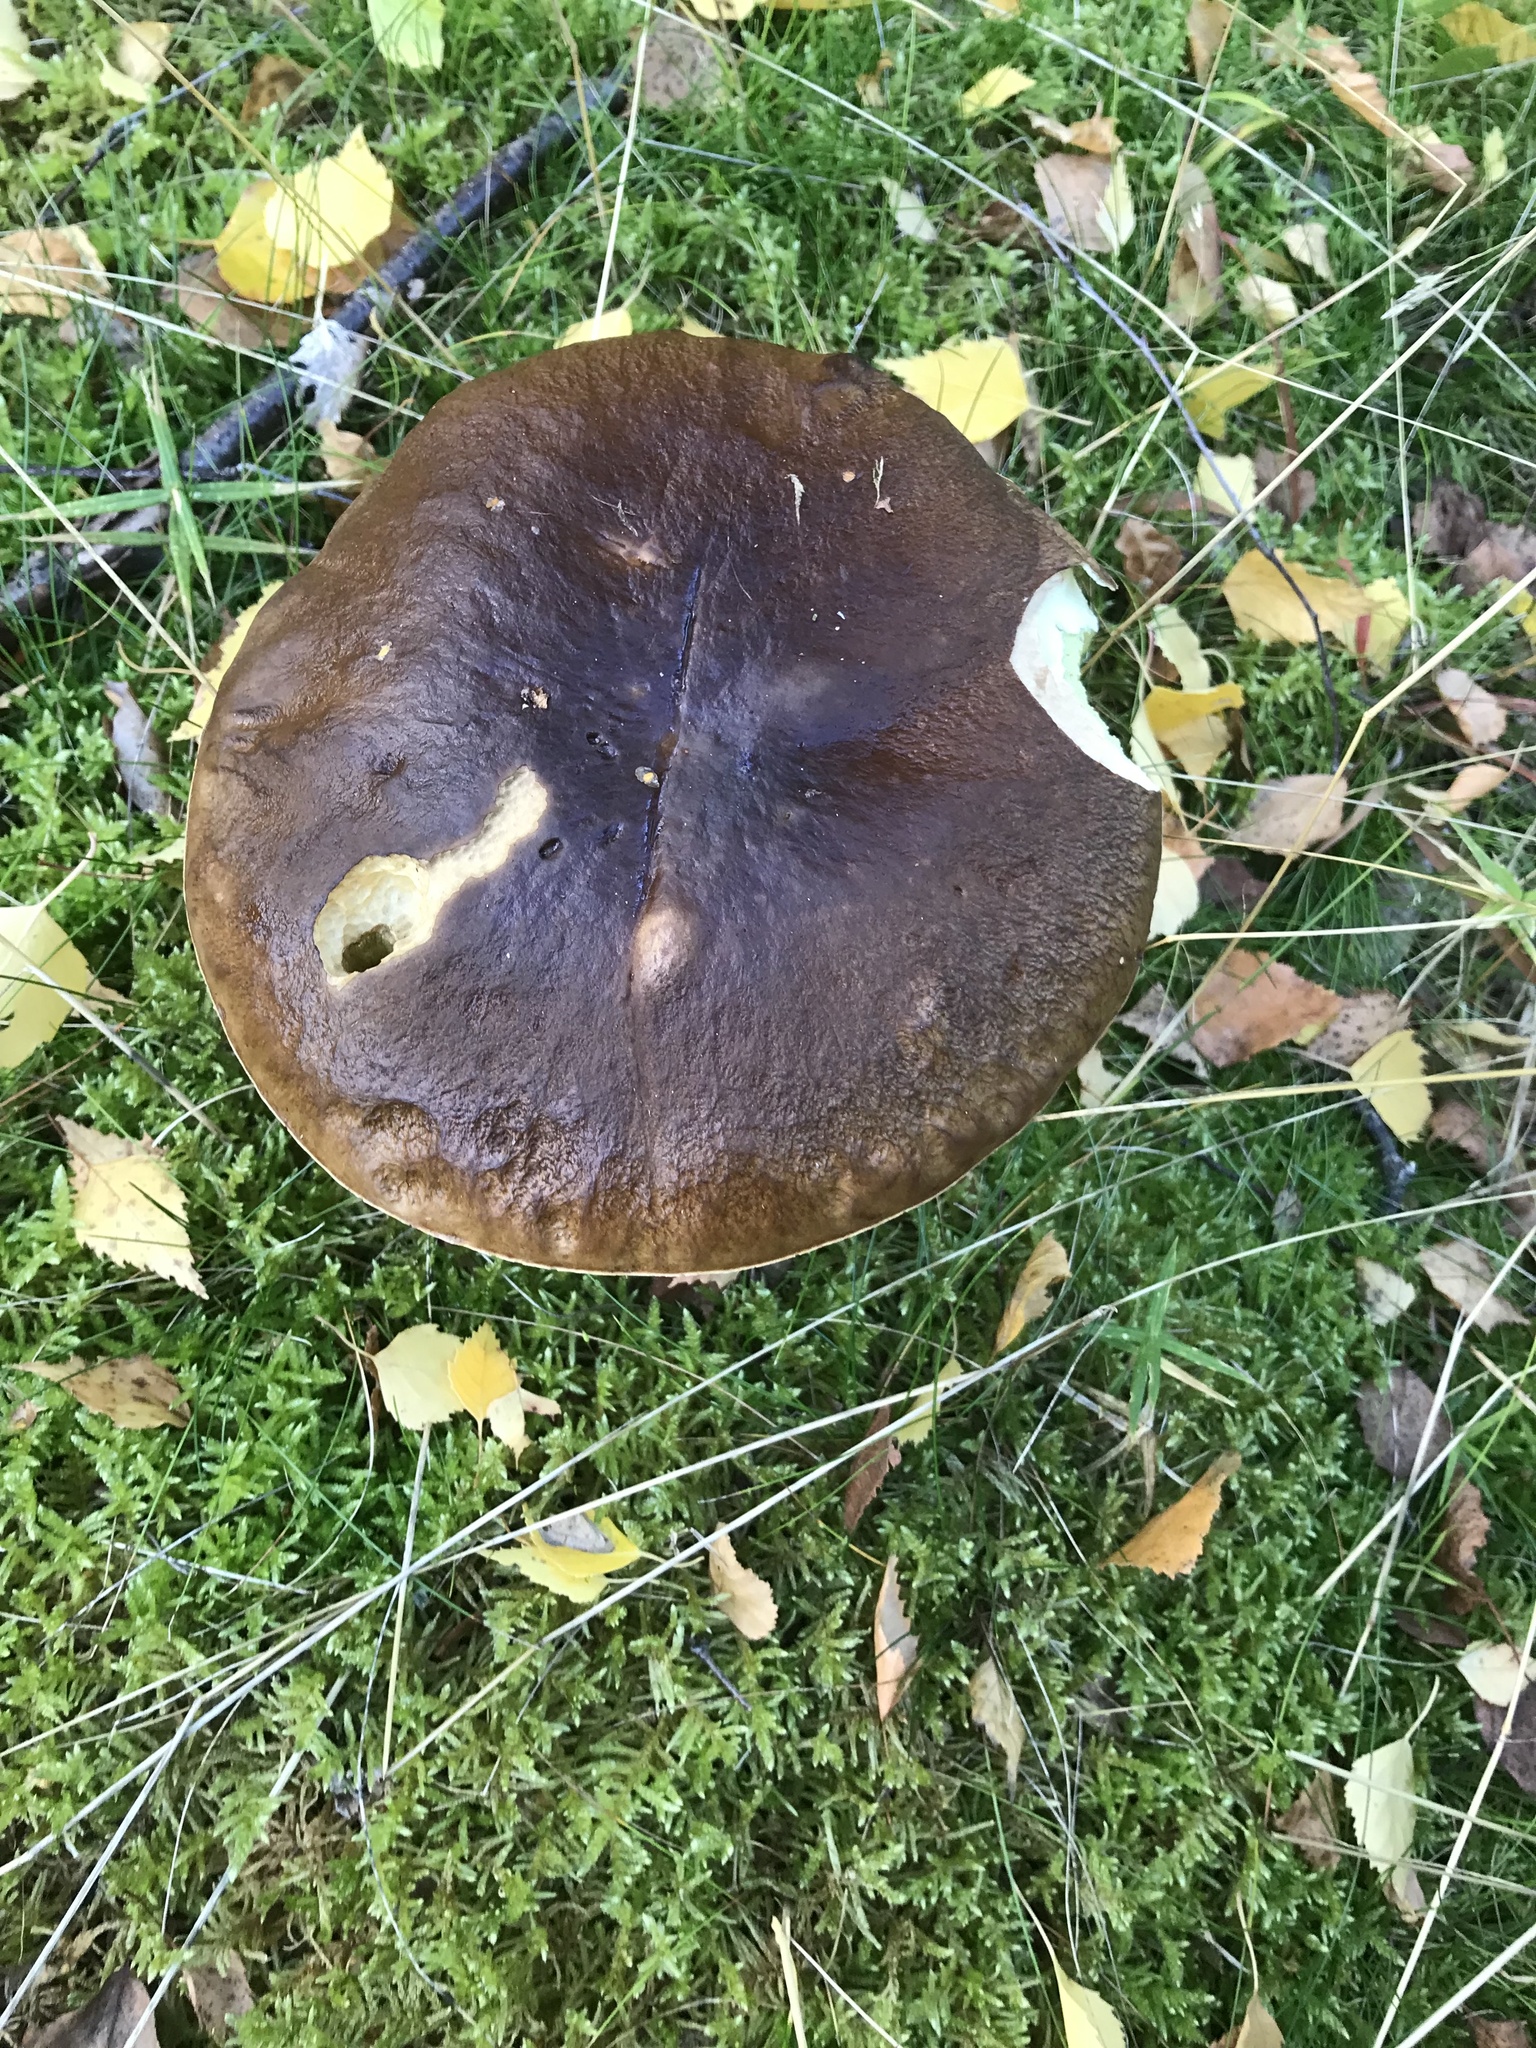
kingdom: Fungi
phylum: Basidiomycota
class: Agaricomycetes
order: Boletales
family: Boletaceae
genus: Boletus
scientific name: Boletus edulis
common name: Cep
